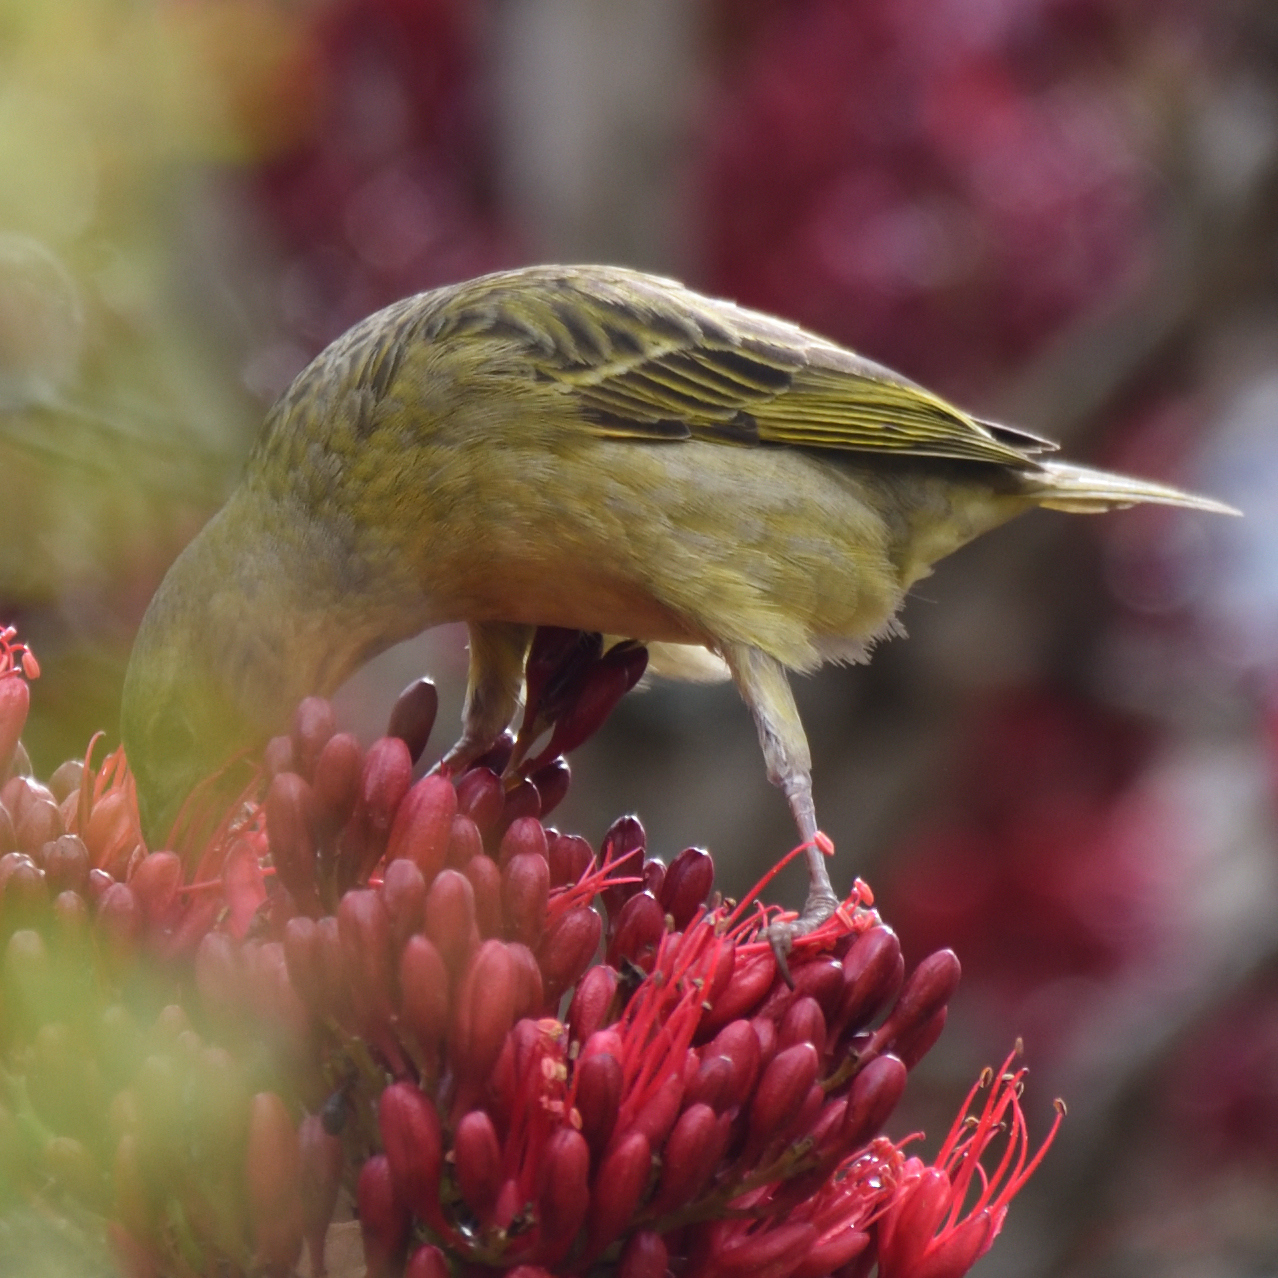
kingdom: Animalia
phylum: Chordata
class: Aves
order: Passeriformes
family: Ploceidae
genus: Ploceus
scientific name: Ploceus capensis
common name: Cape weaver
